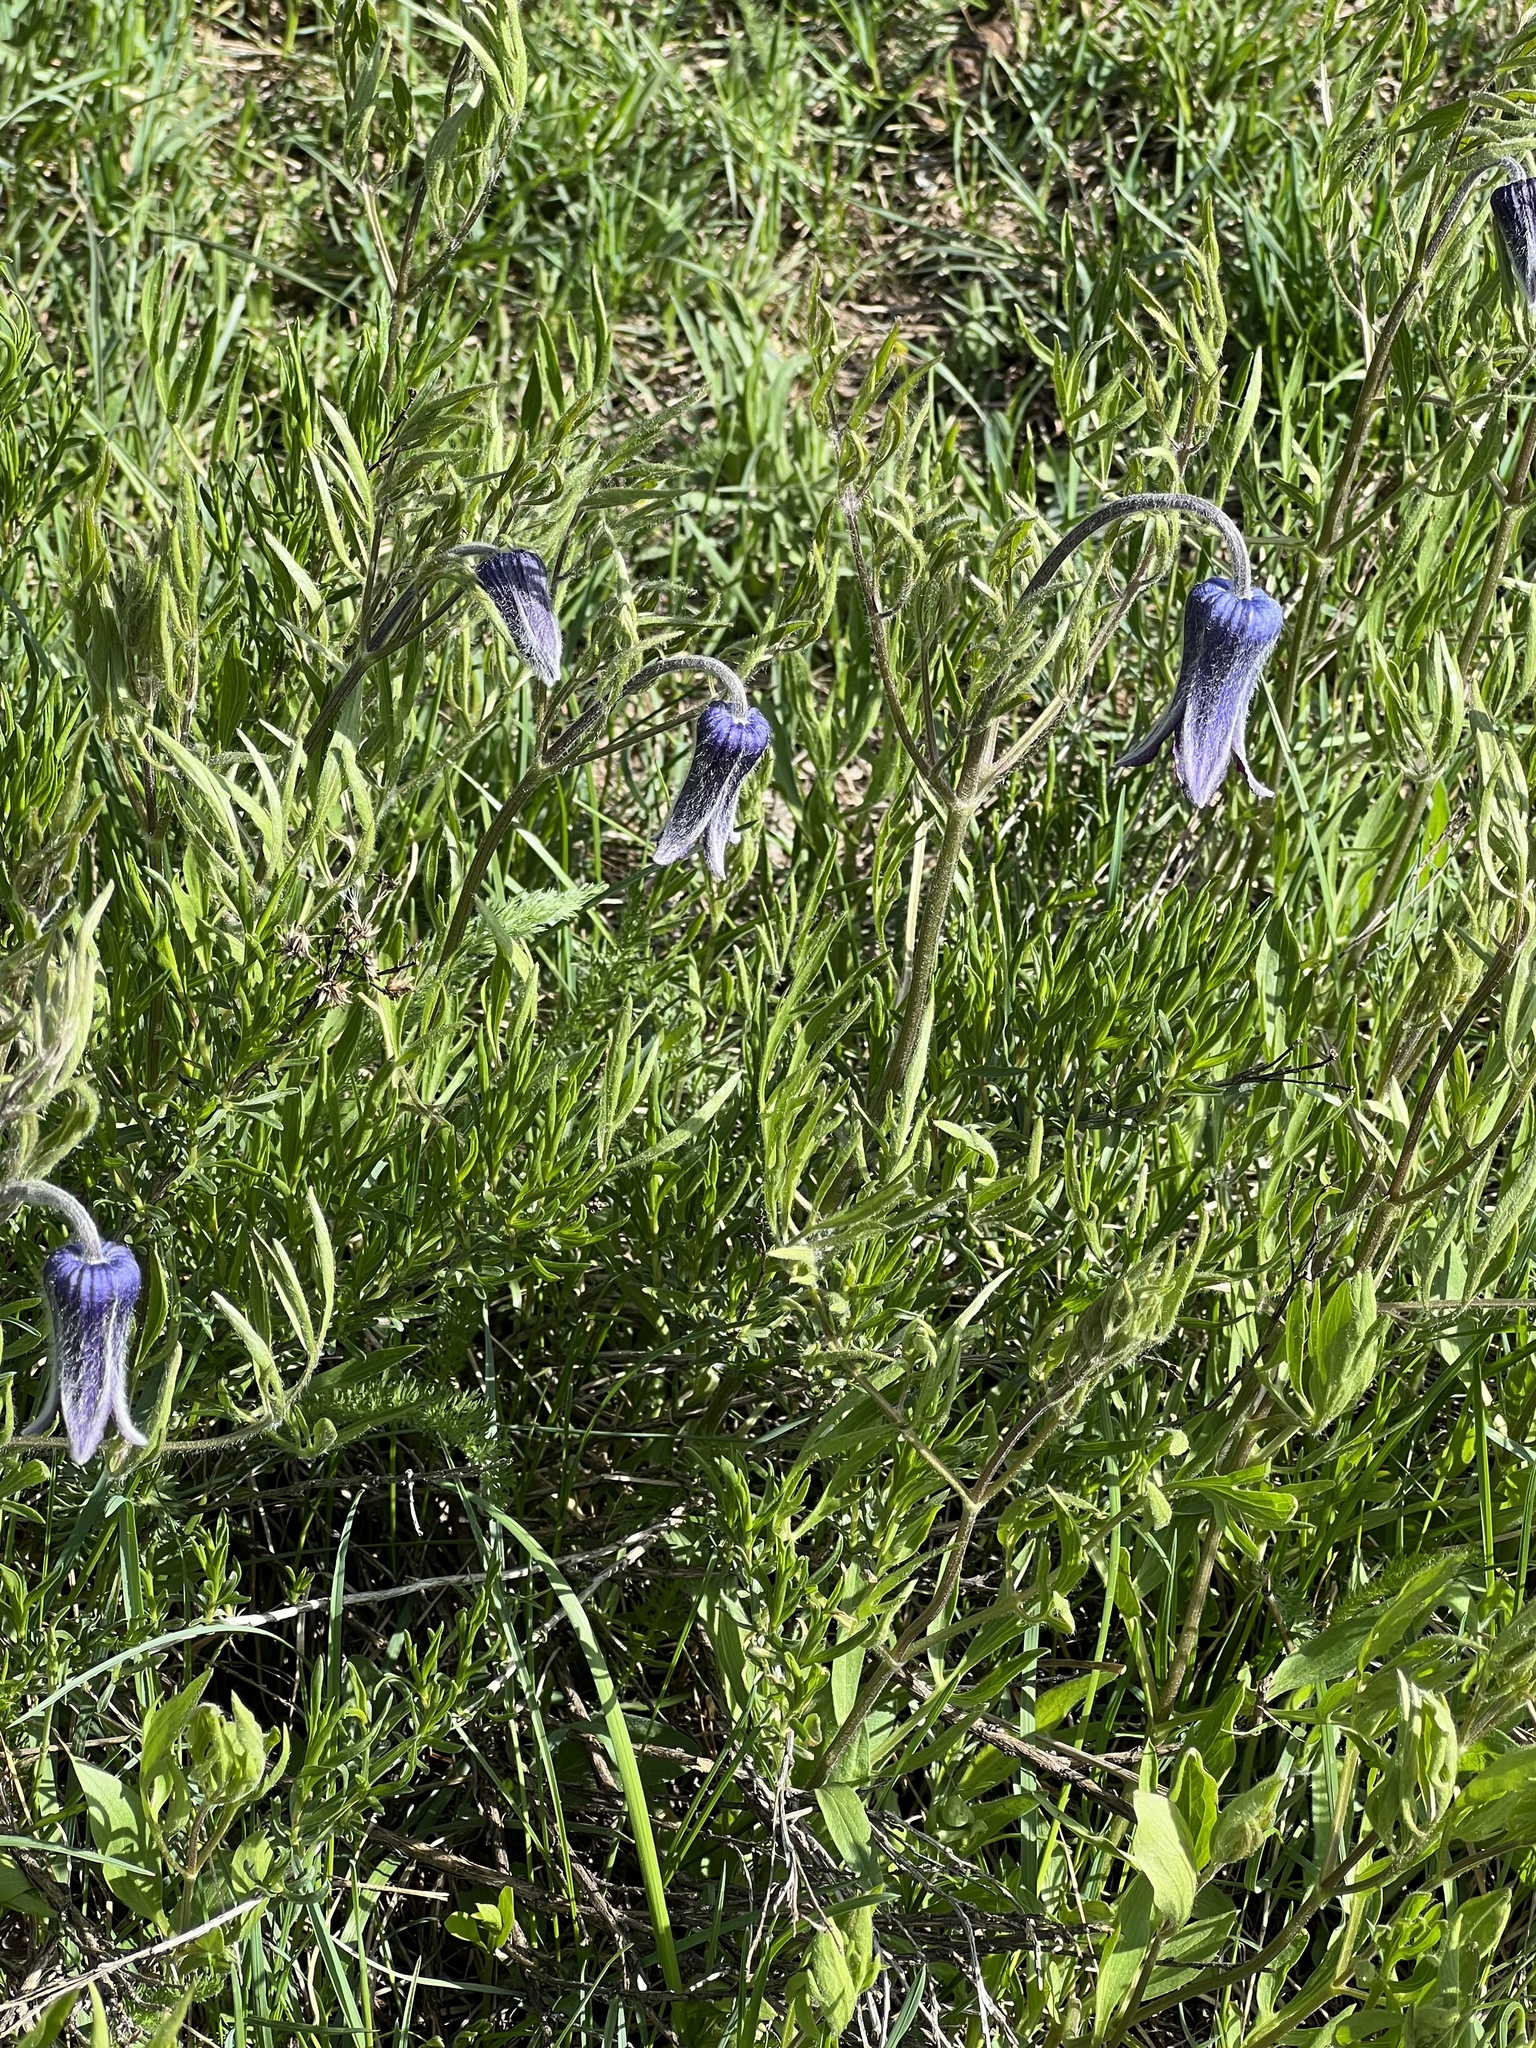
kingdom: Plantae
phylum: Tracheophyta
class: Magnoliopsida
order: Ranunculales
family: Ranunculaceae
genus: Clematis
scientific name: Clematis hirsutissima
